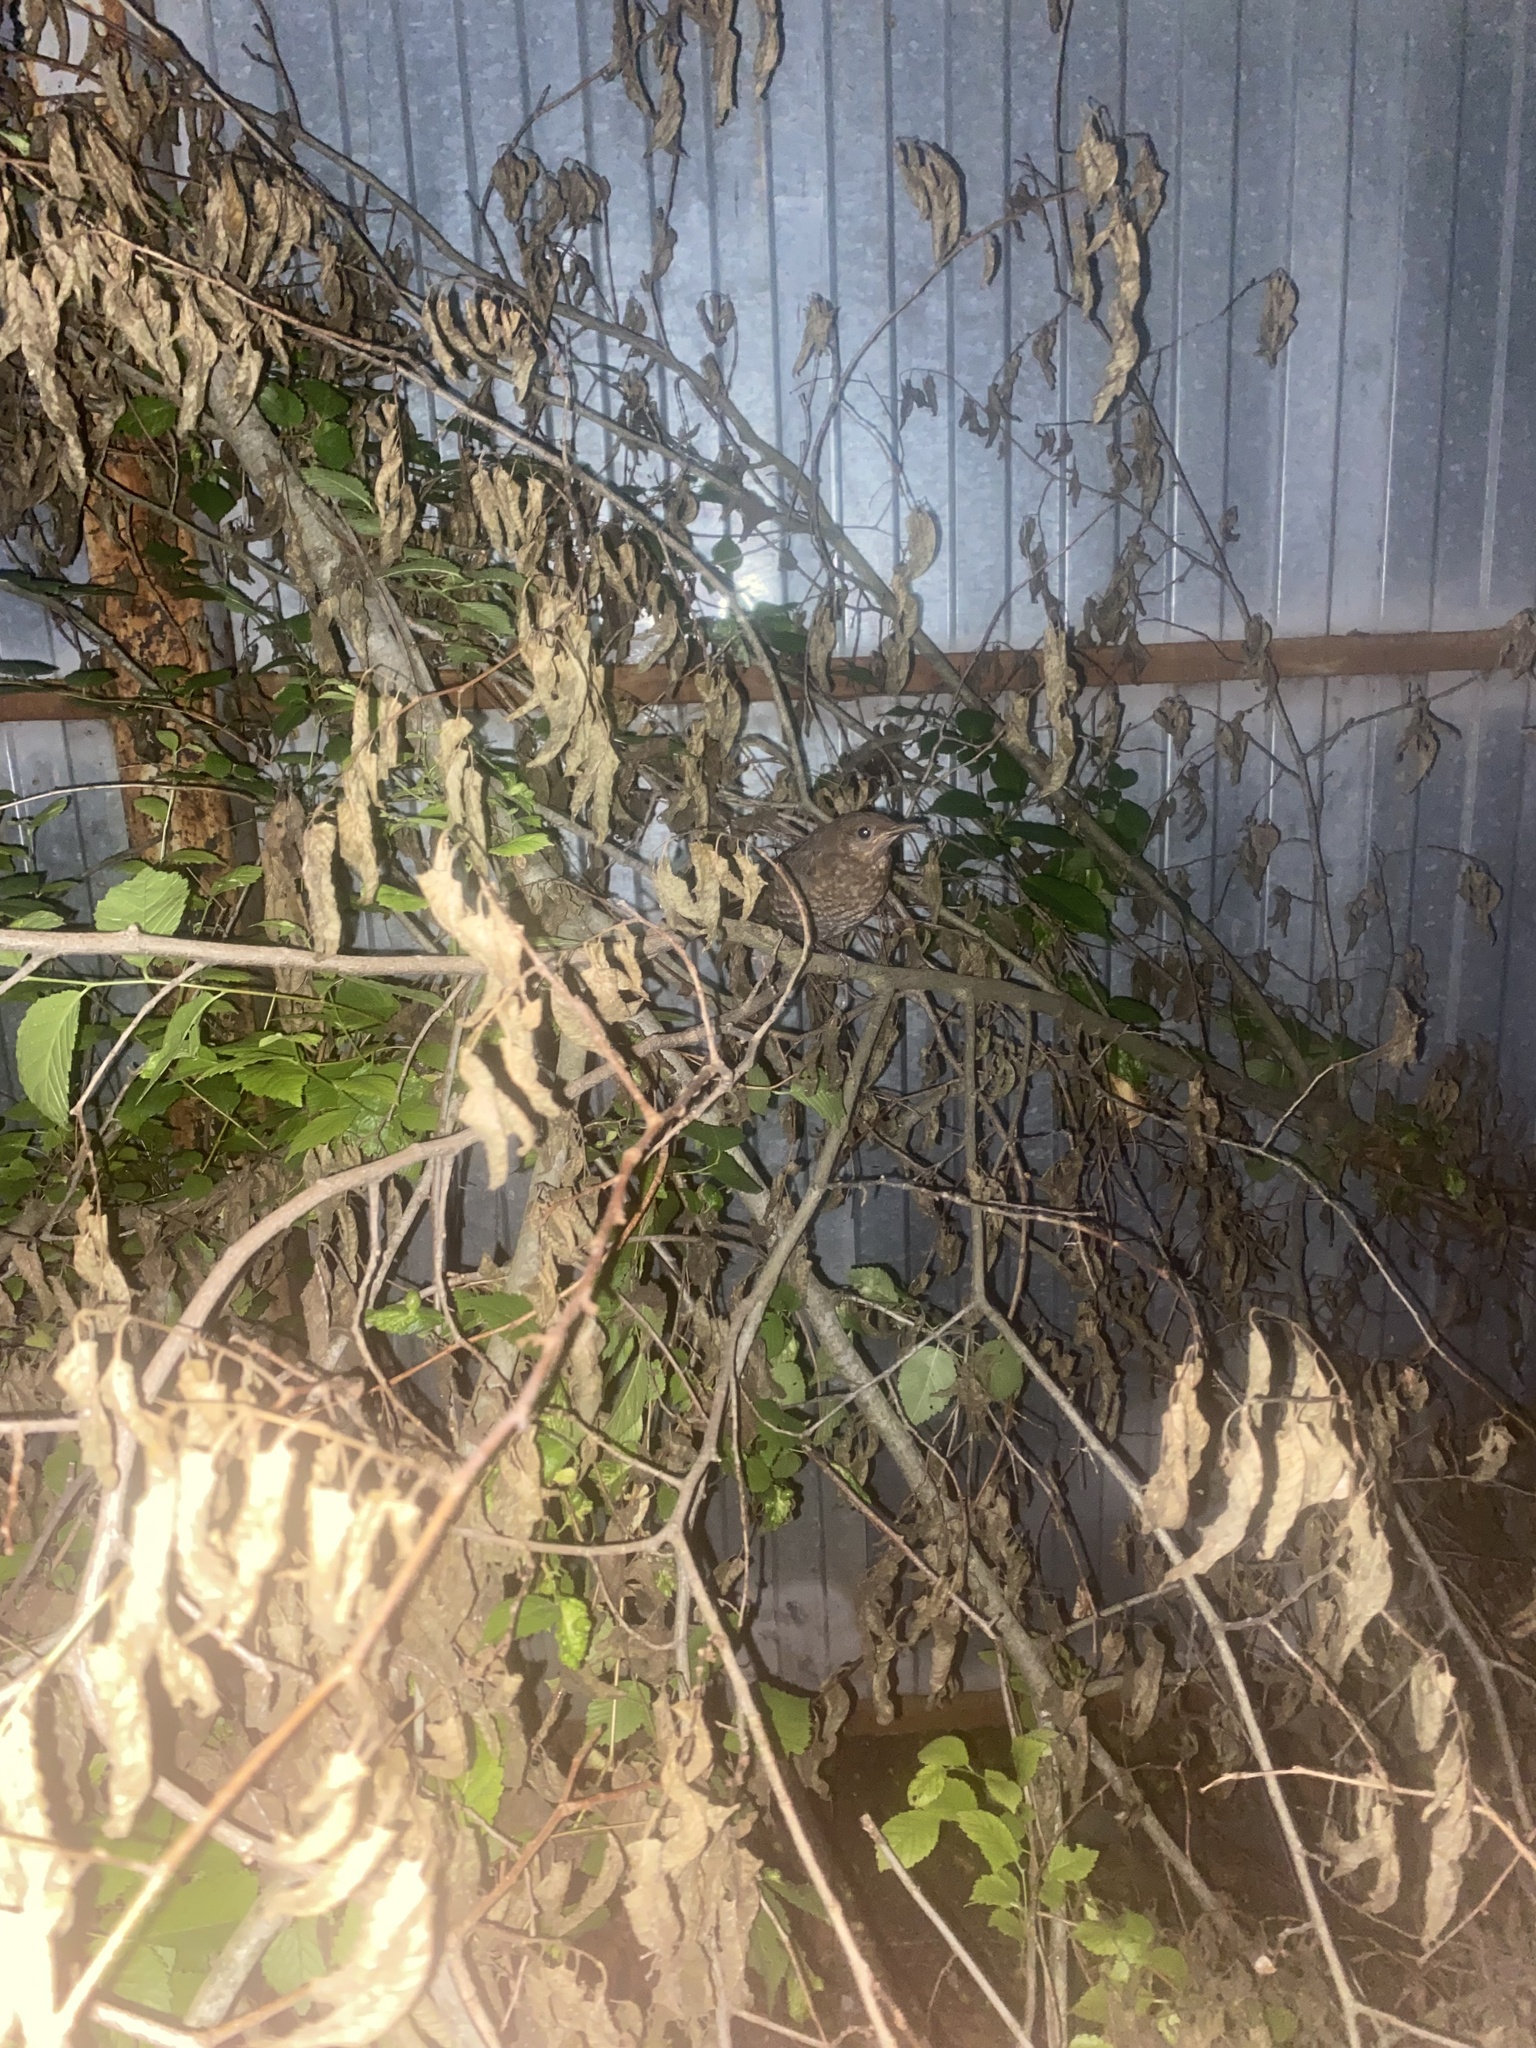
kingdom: Animalia
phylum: Chordata
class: Aves
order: Passeriformes
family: Turdidae
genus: Turdus
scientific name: Turdus merula
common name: Common blackbird
